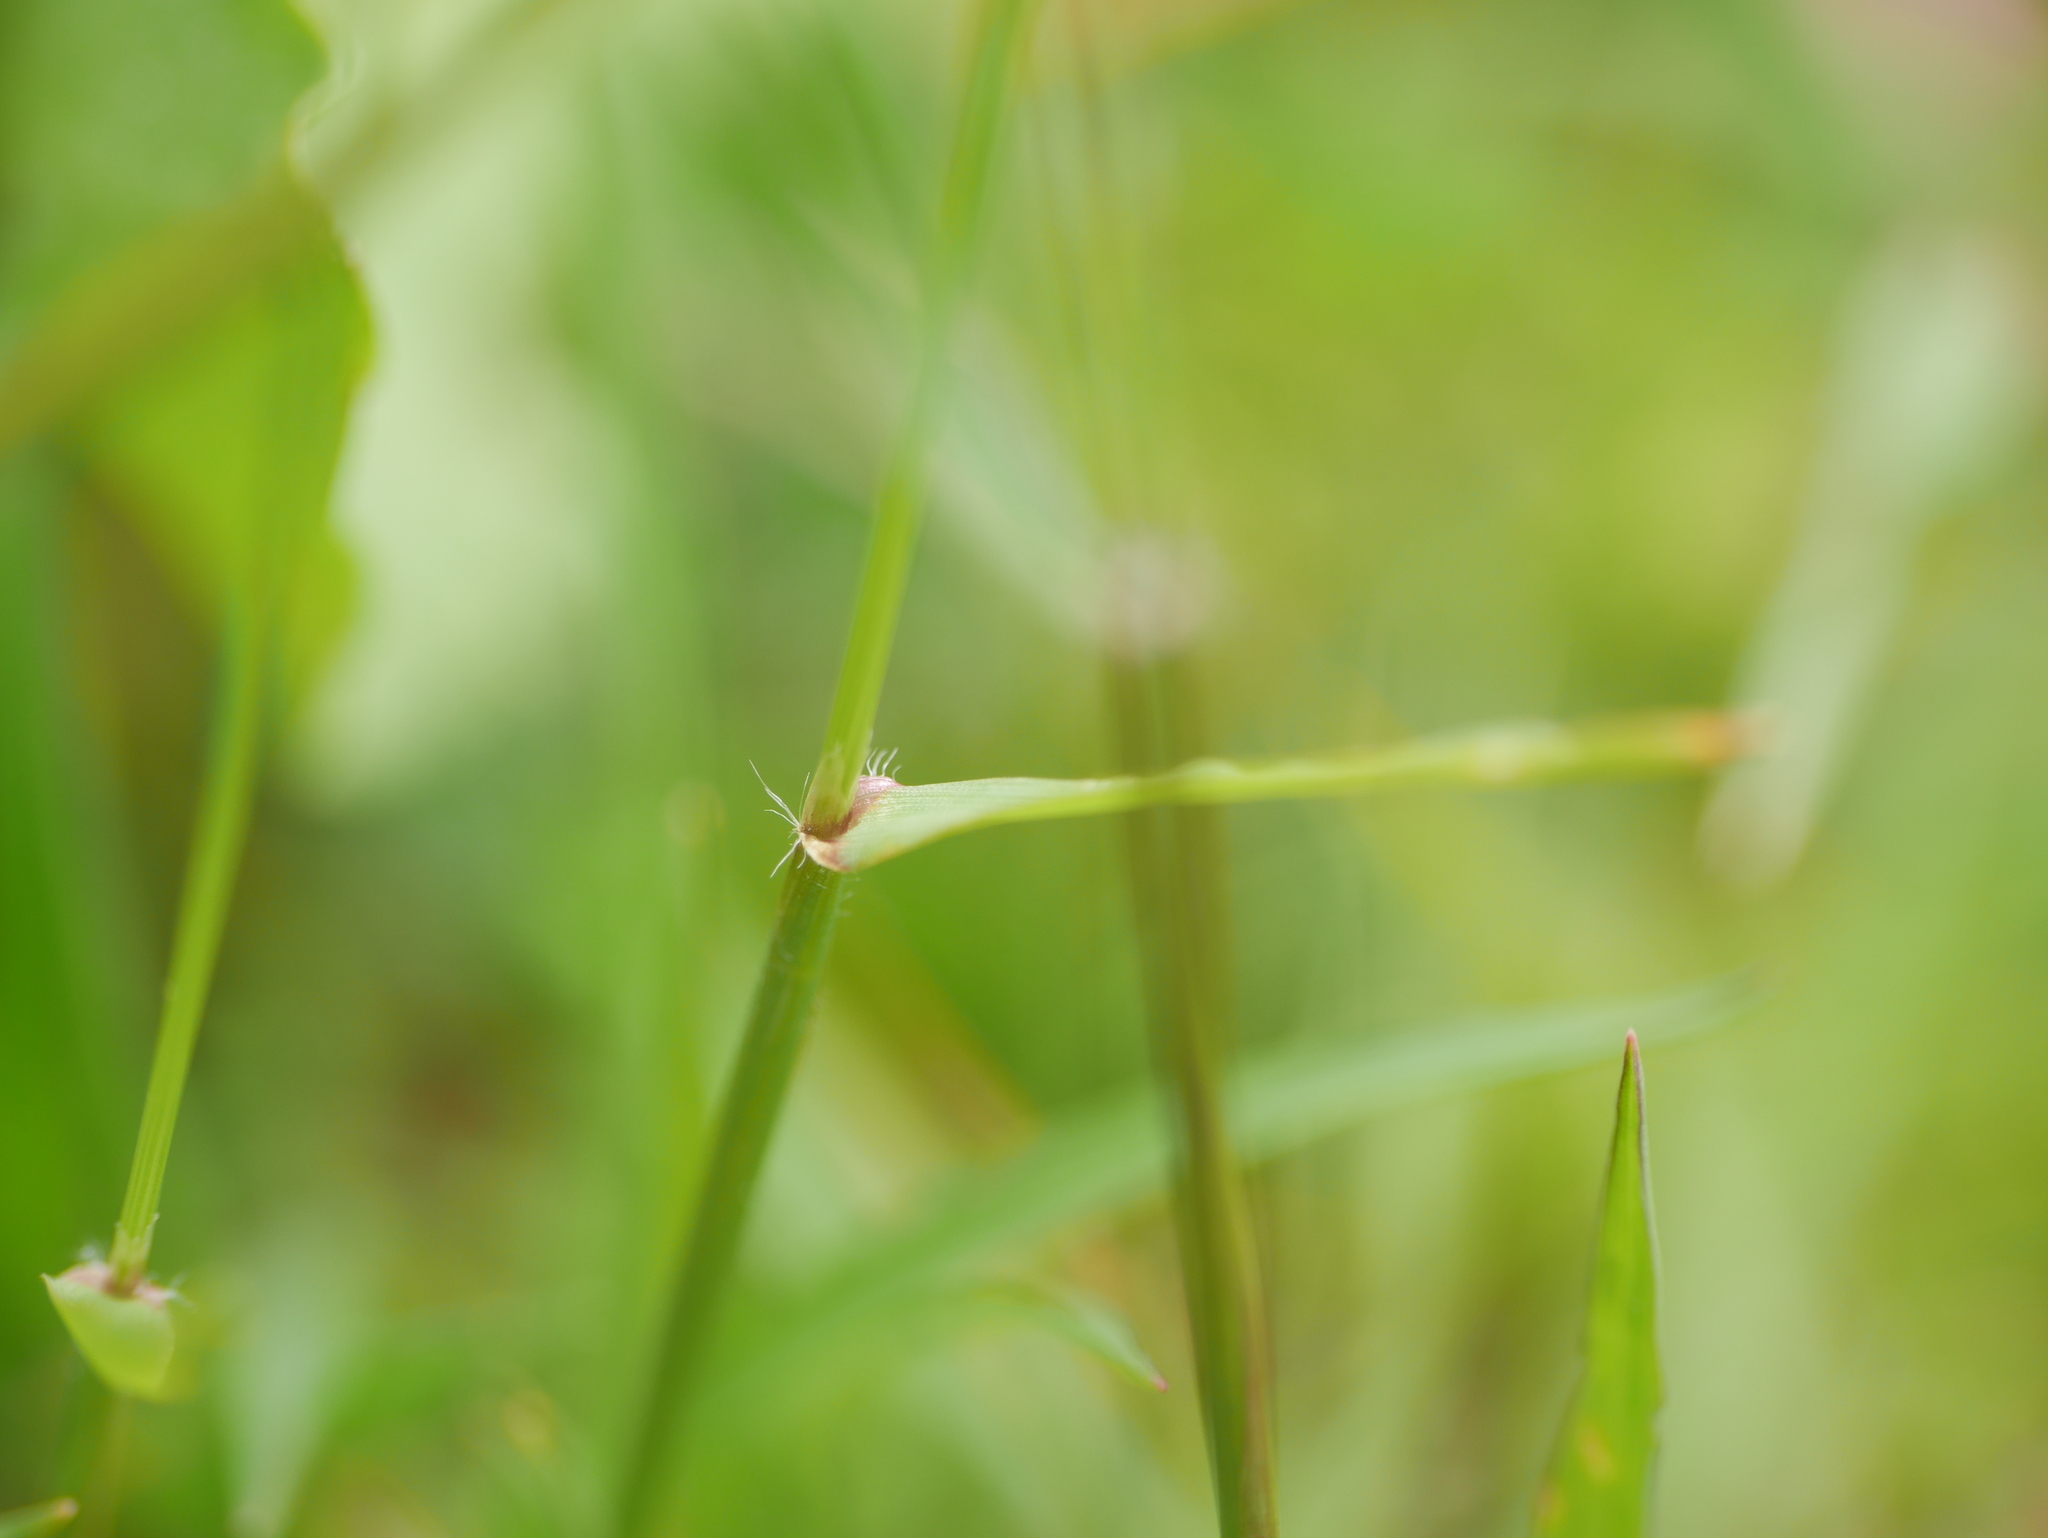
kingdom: Plantae
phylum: Tracheophyta
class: Liliopsida
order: Poales
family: Poaceae
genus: Anthoxanthum
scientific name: Anthoxanthum odoratum
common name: Sweet vernalgrass
